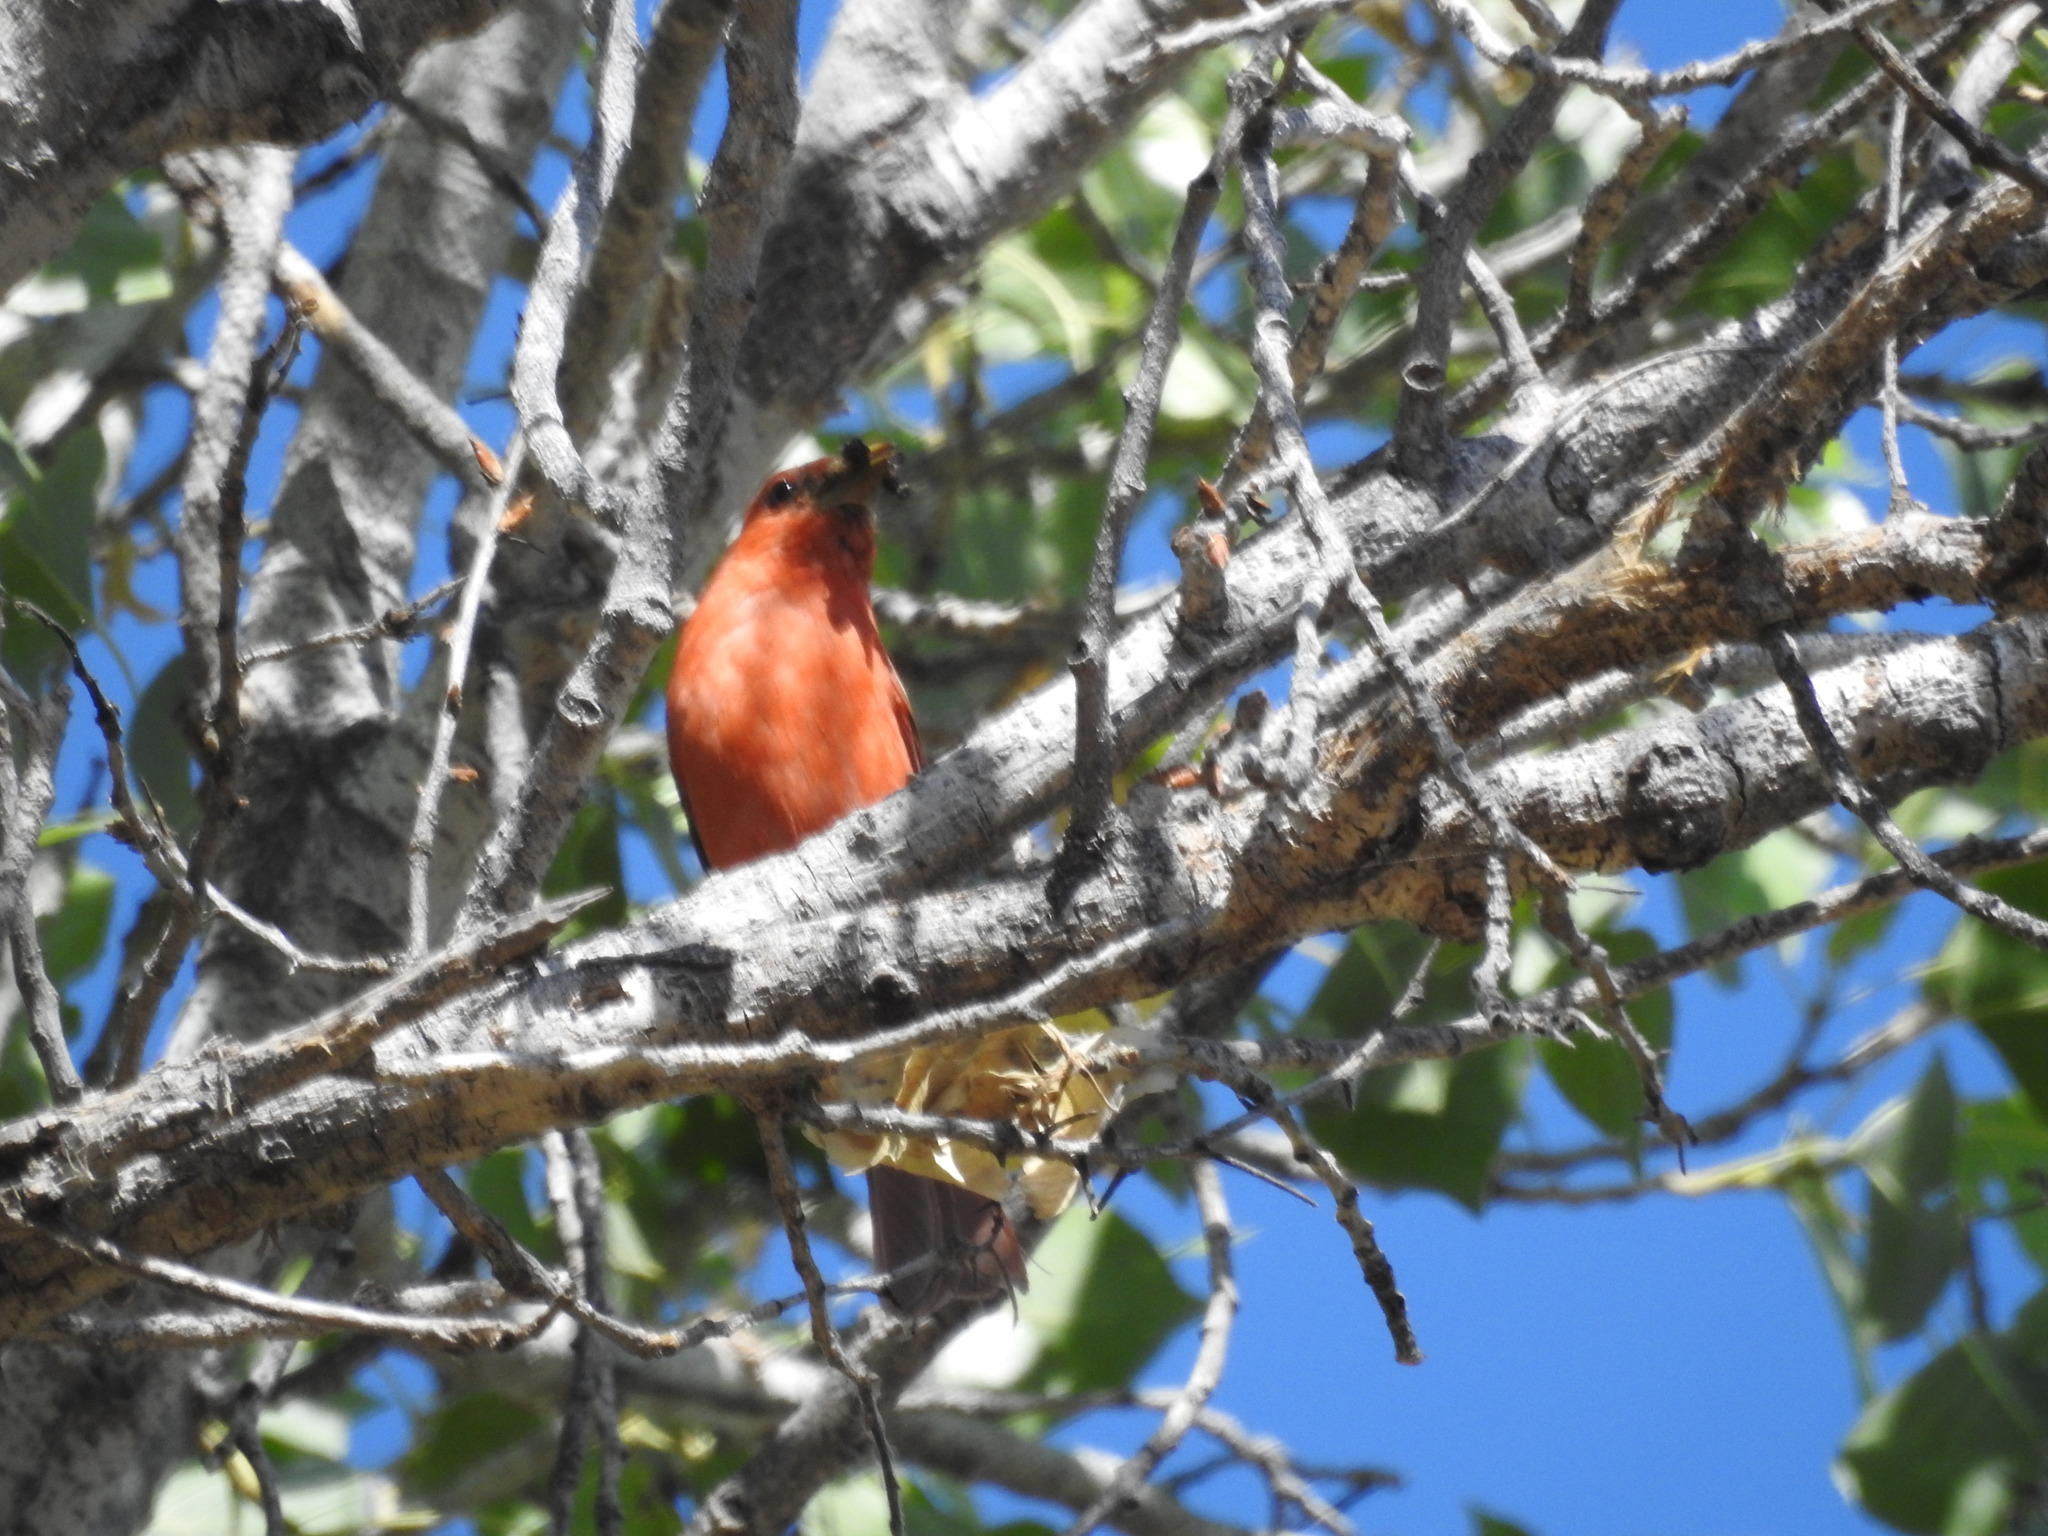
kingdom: Animalia
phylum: Chordata
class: Aves
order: Passeriformes
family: Cardinalidae
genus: Piranga
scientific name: Piranga rubra
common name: Summer tanager
